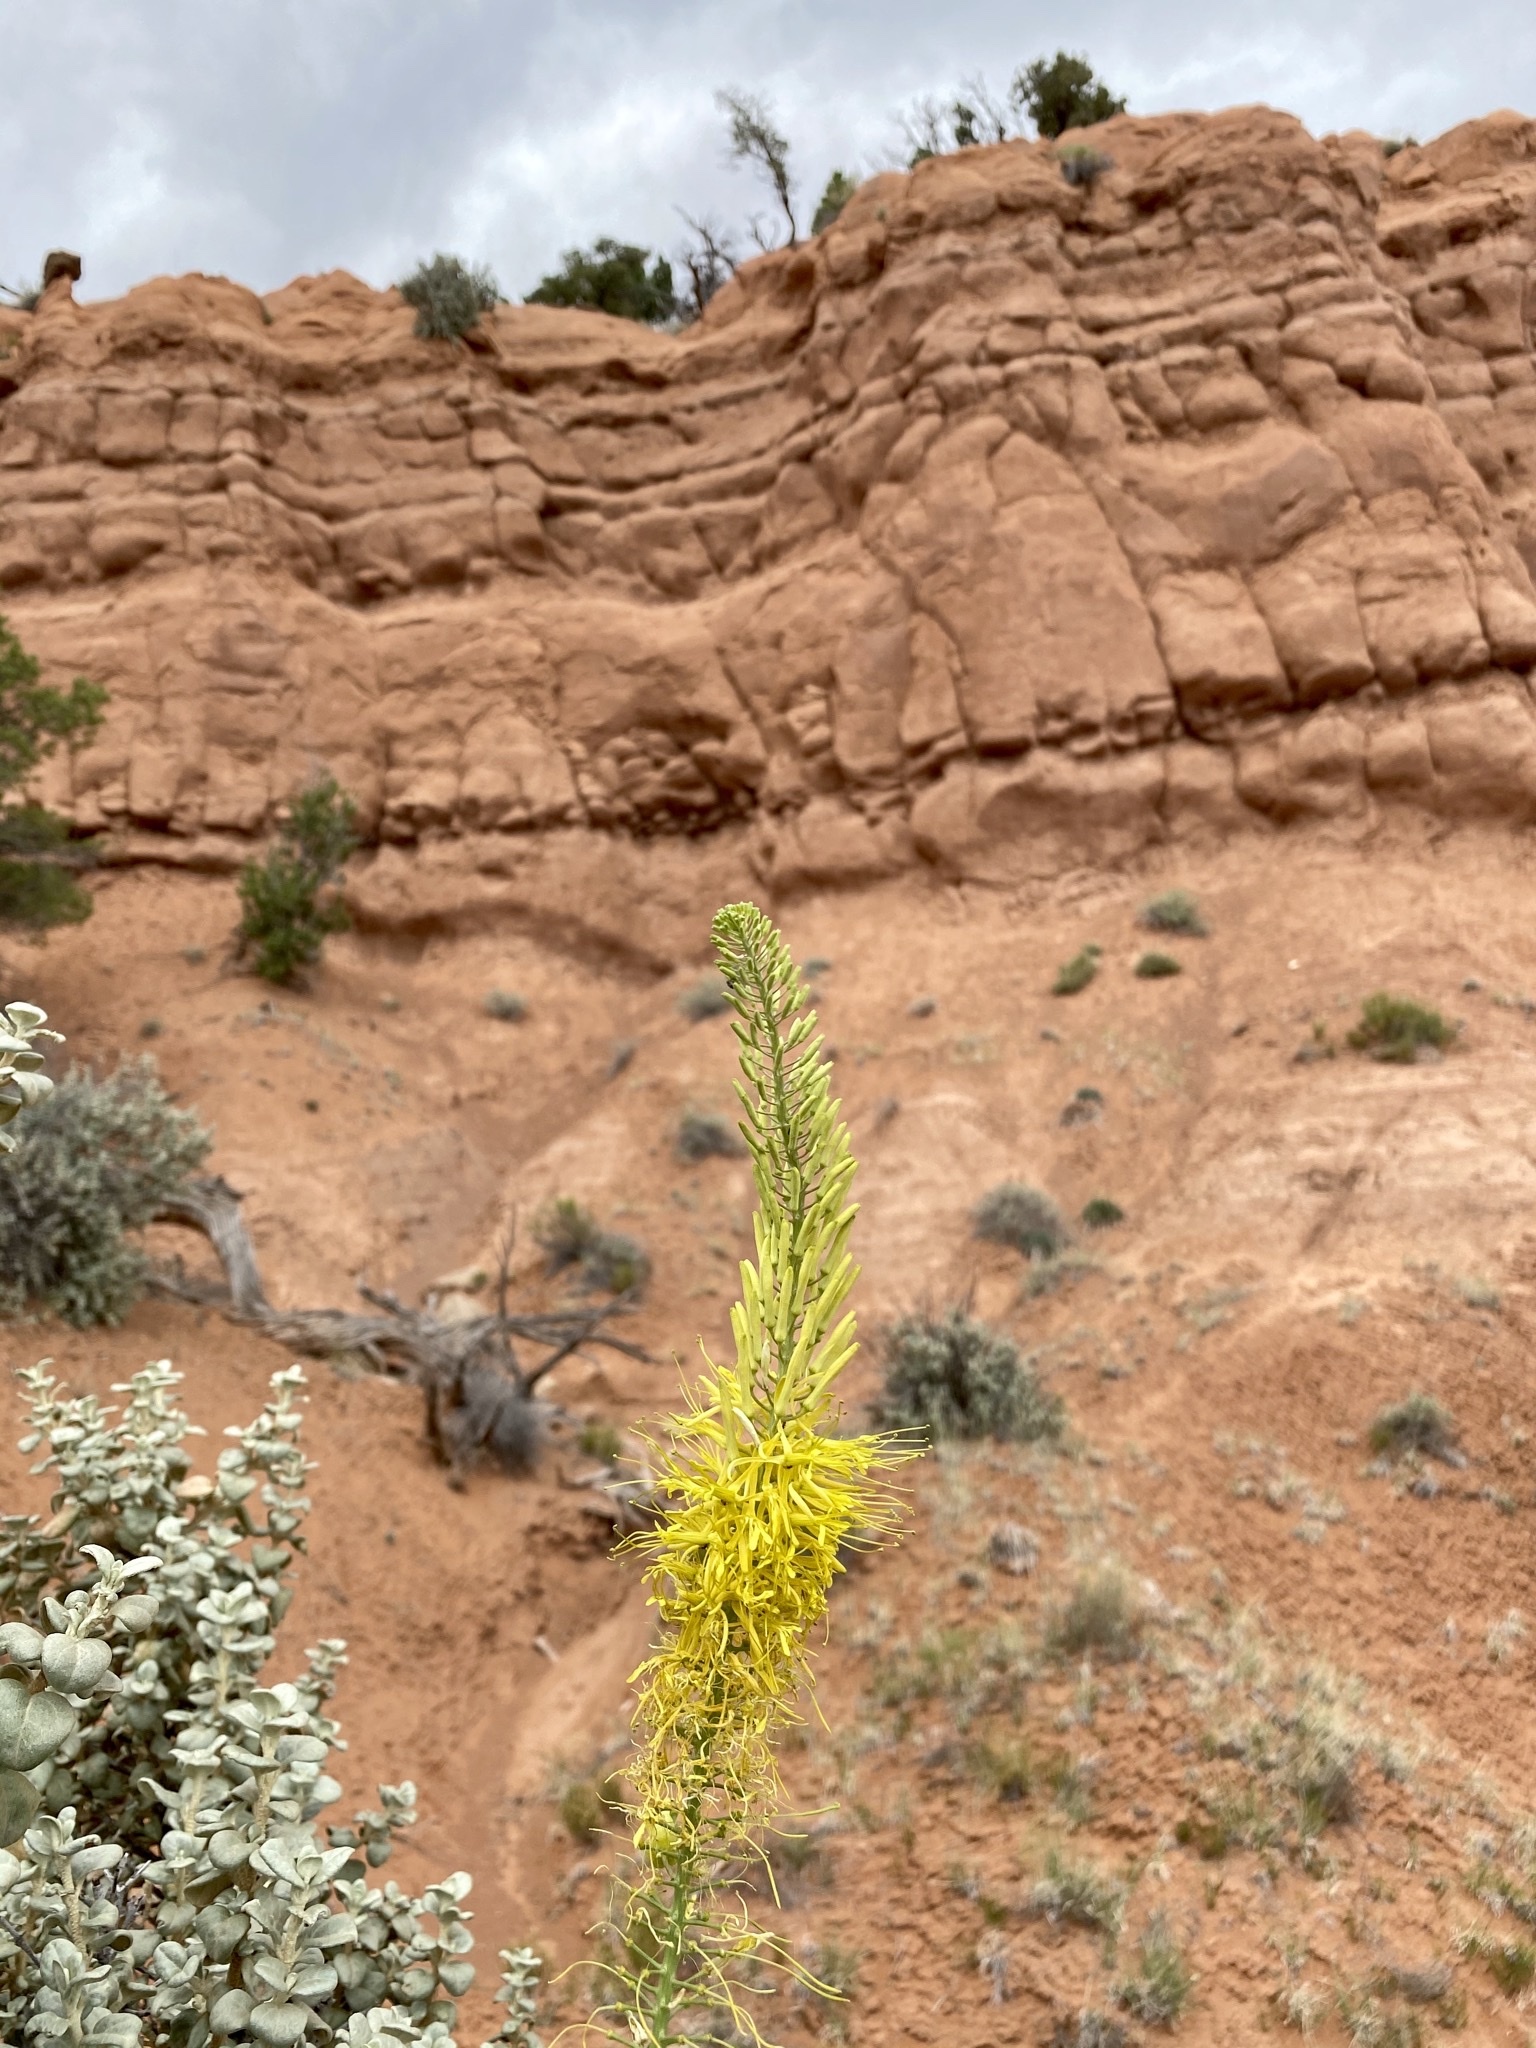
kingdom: Plantae
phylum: Tracheophyta
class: Magnoliopsida
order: Brassicales
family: Brassicaceae
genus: Stanleya
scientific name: Stanleya pinnata
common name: Prince's-plume
